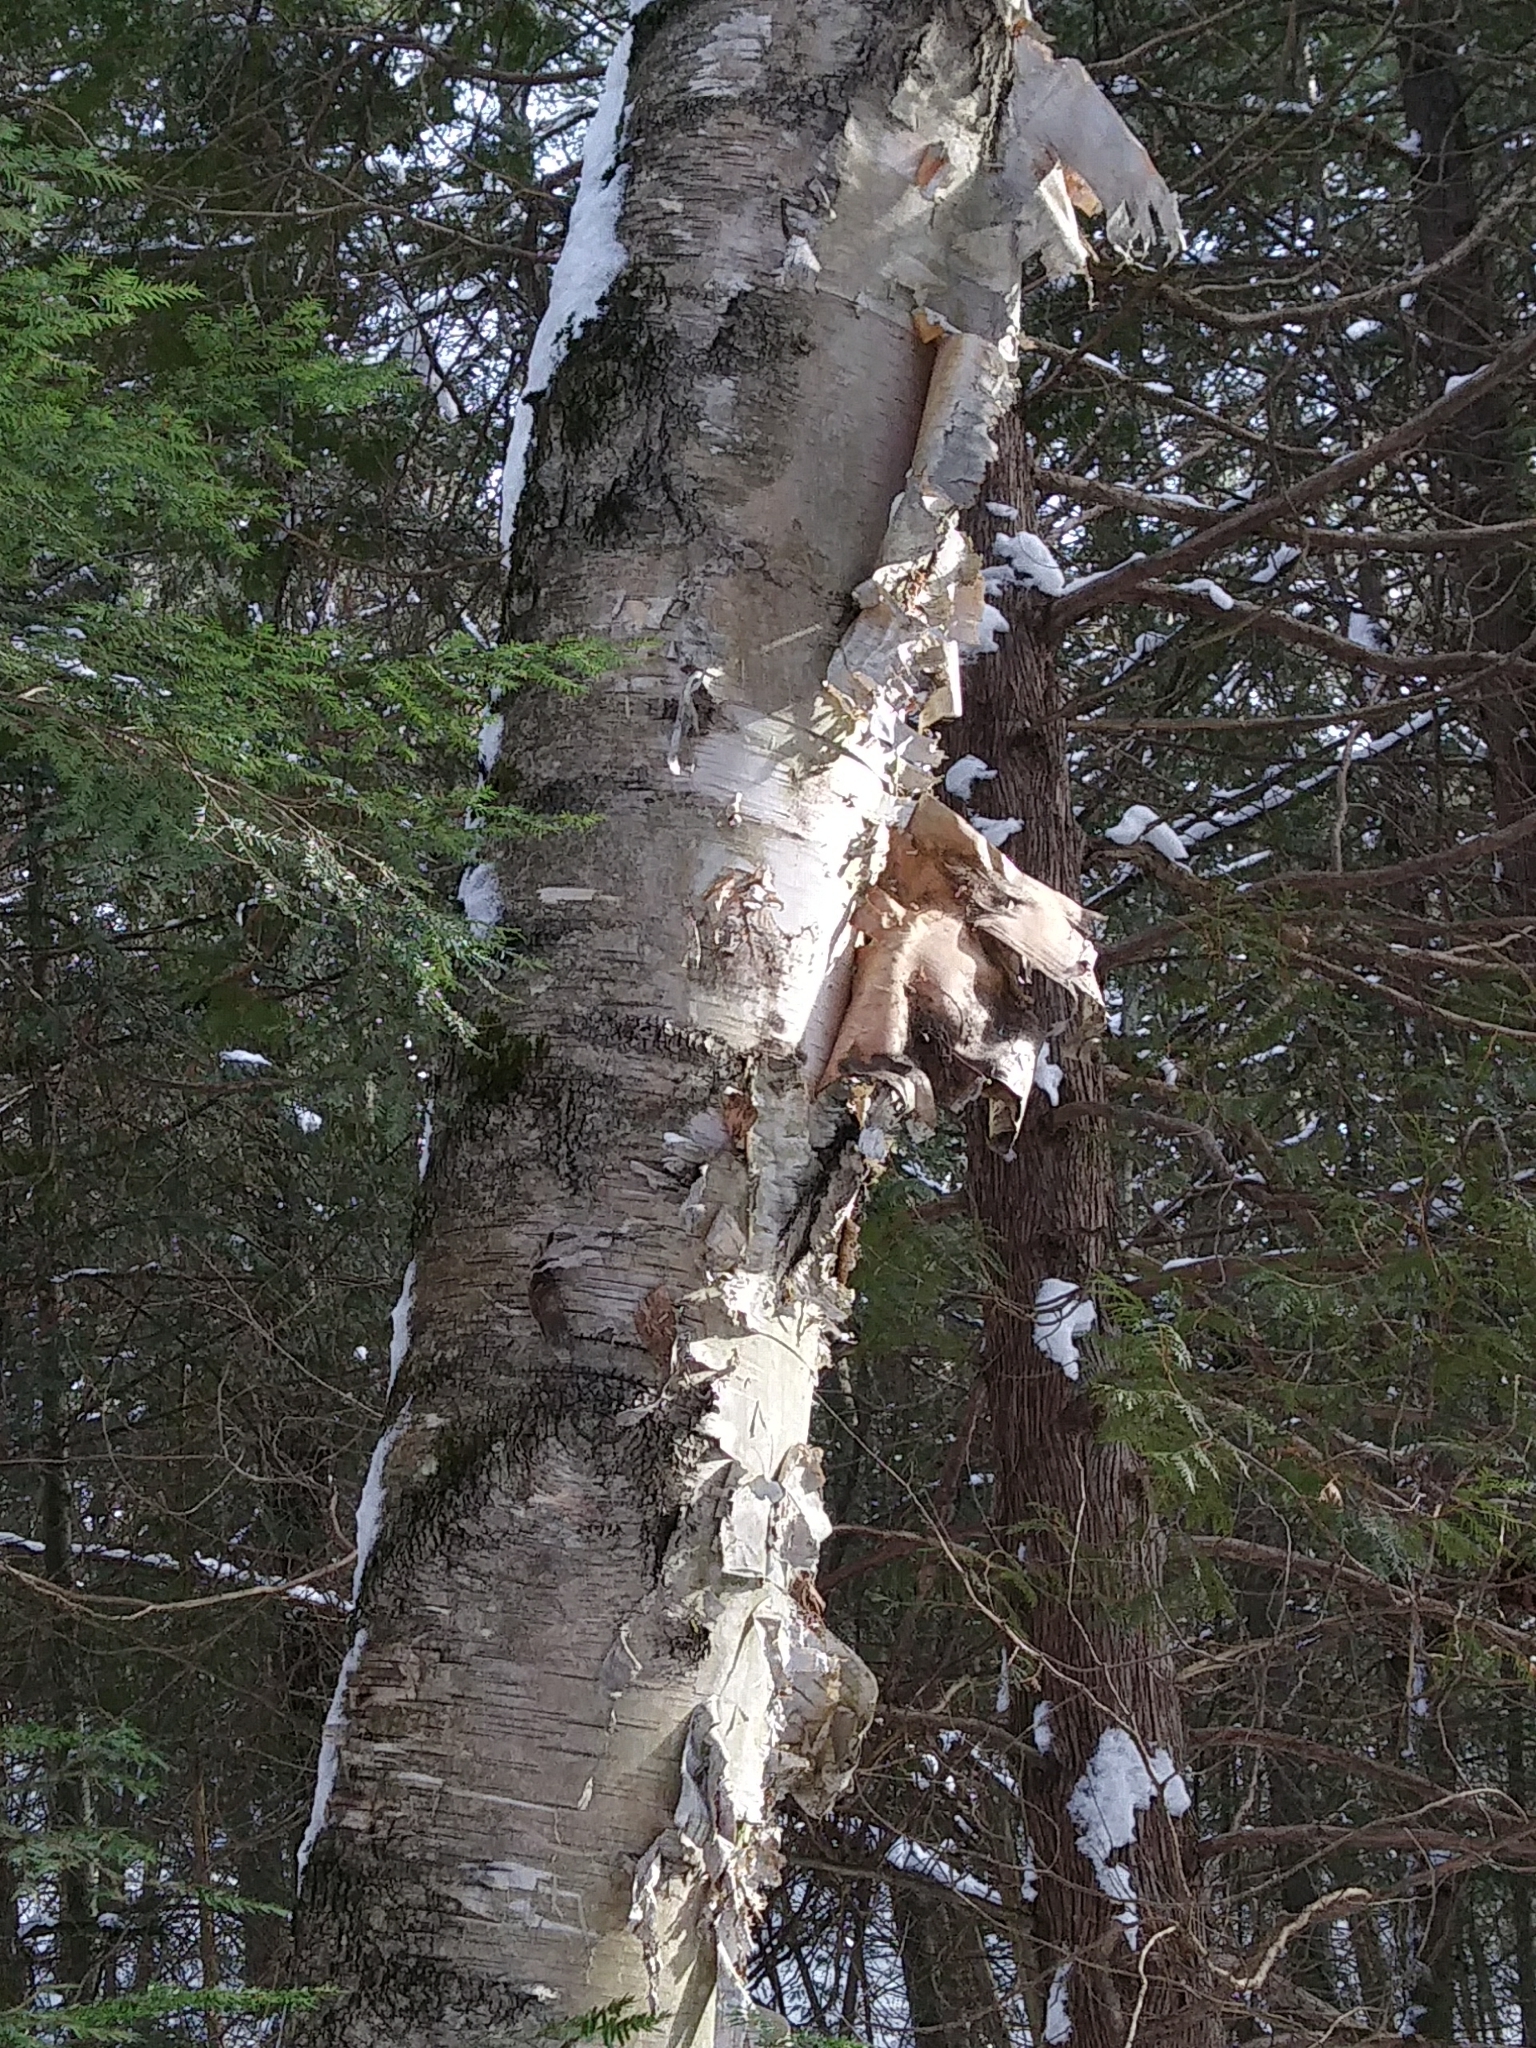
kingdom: Plantae
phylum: Tracheophyta
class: Magnoliopsida
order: Fagales
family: Betulaceae
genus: Betula
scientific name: Betula papyrifera
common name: Paper birch
